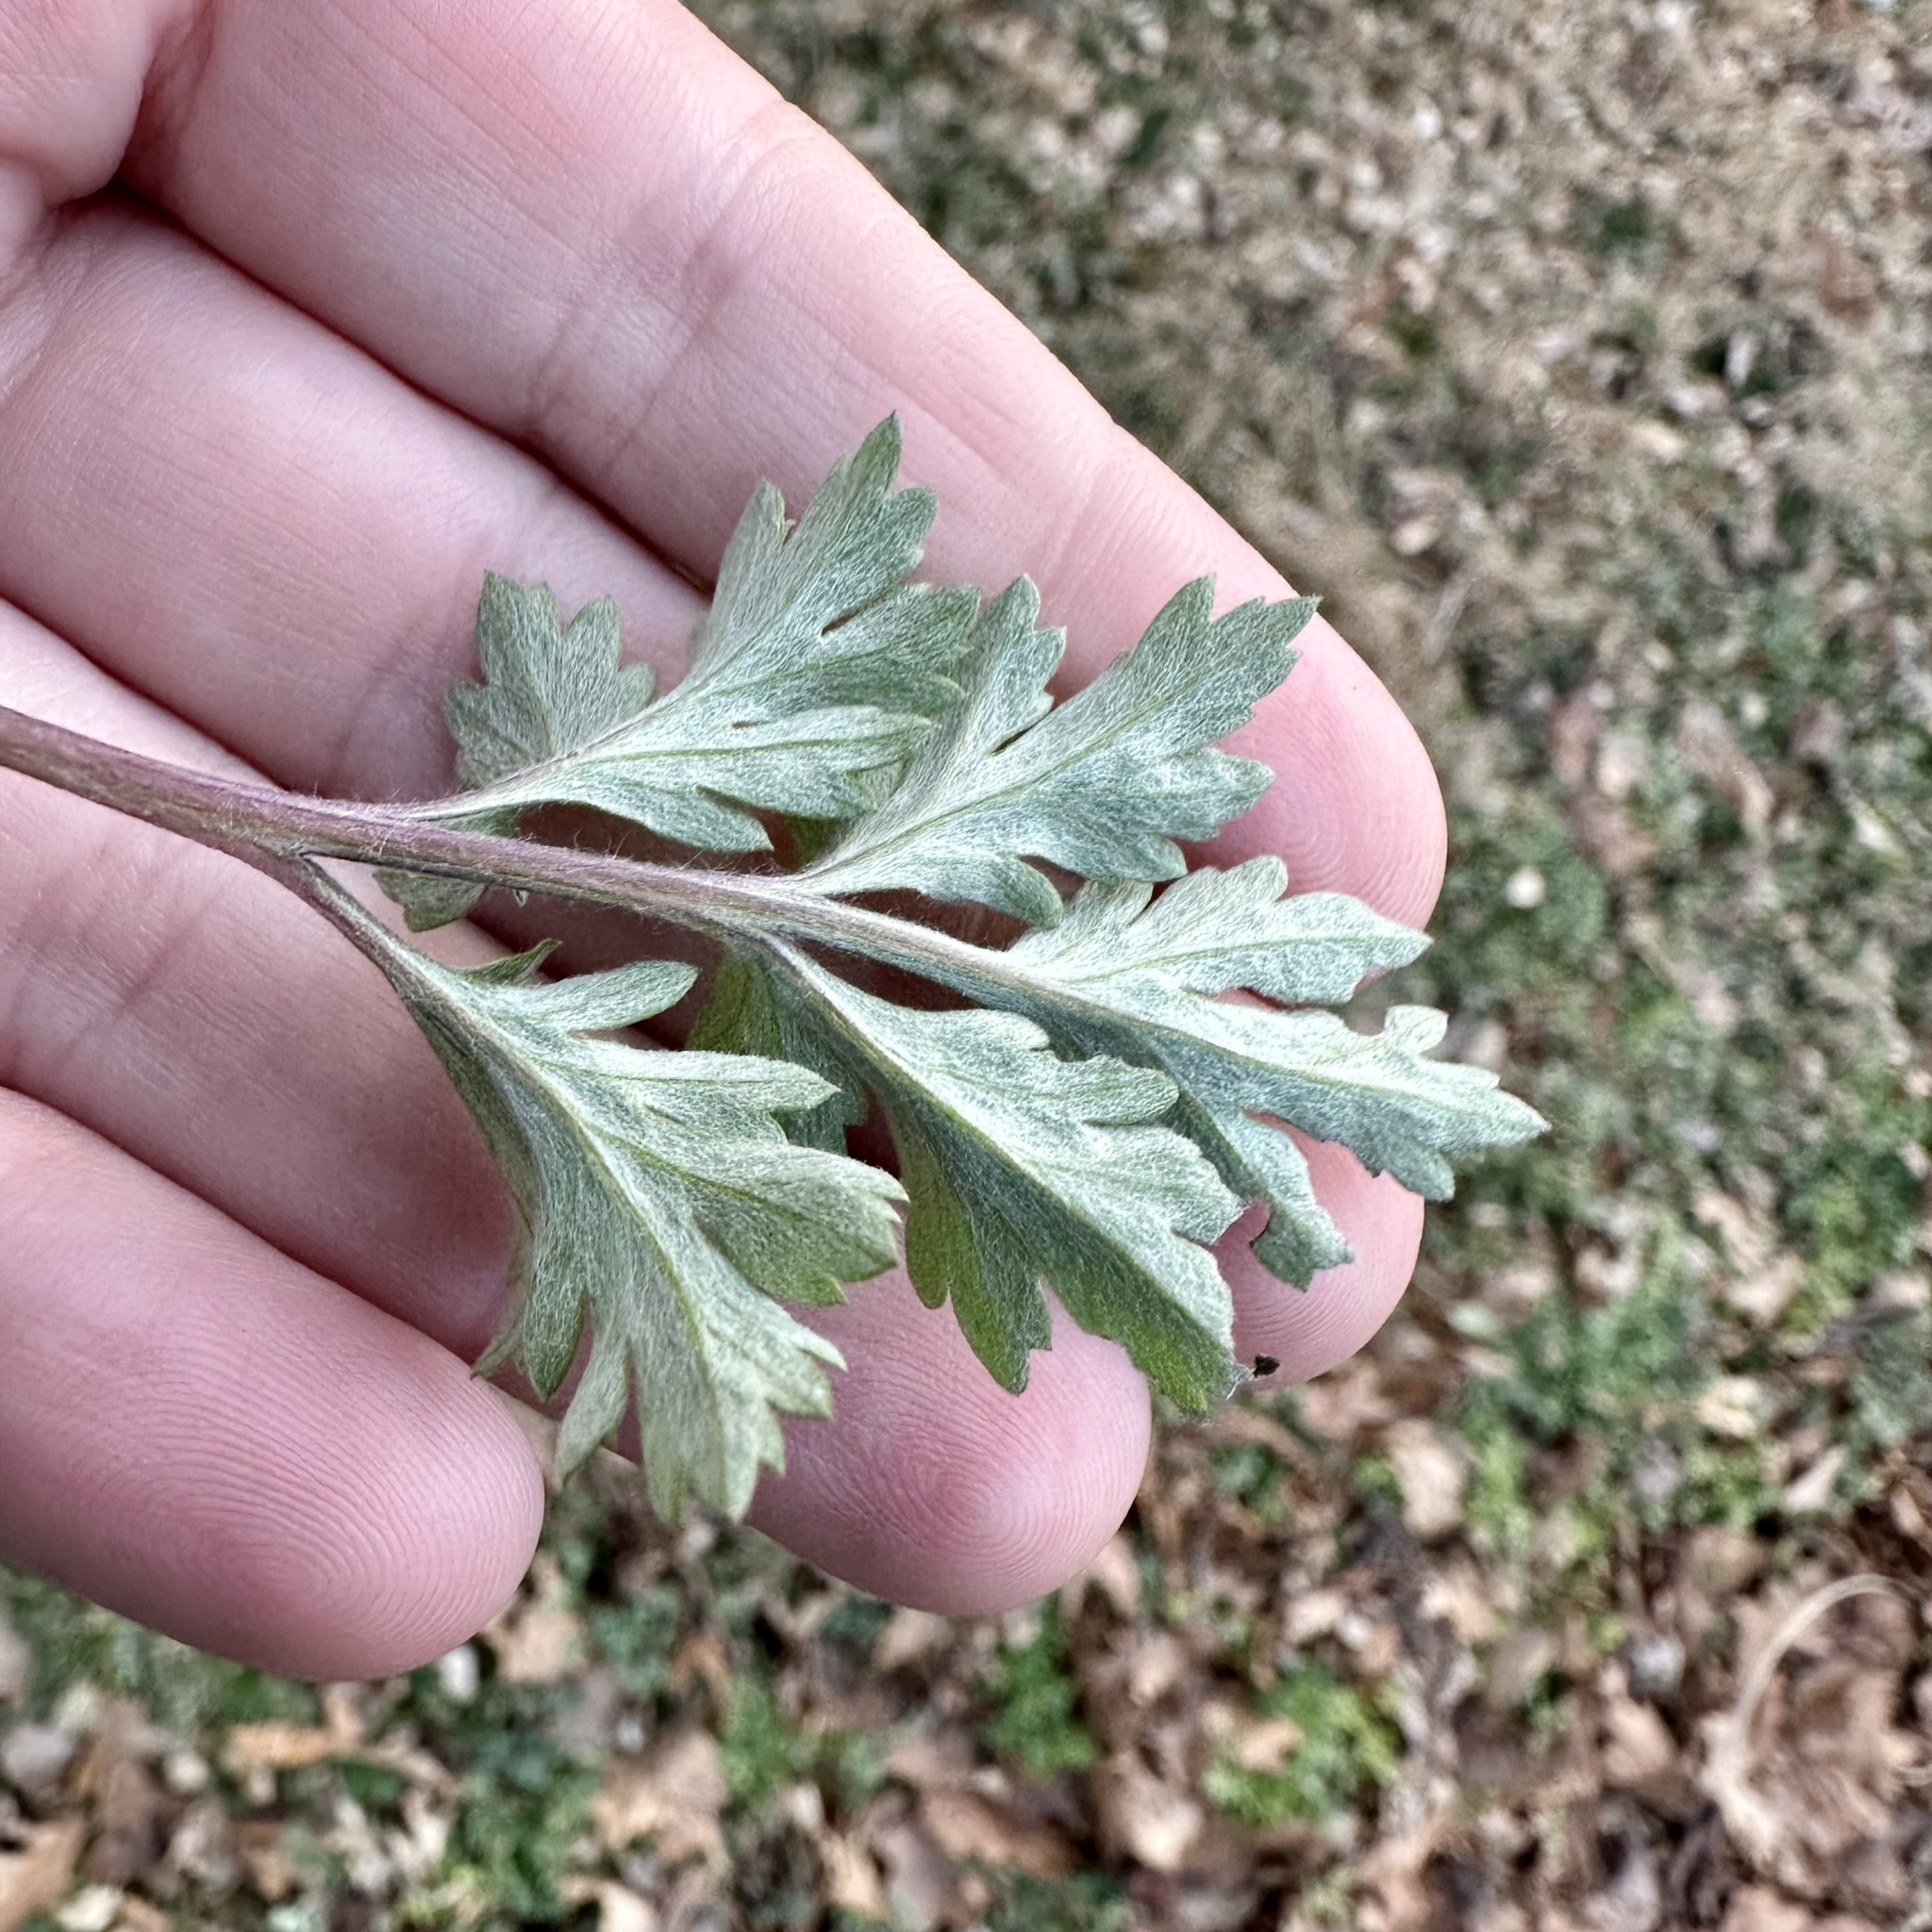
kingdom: Plantae
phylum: Tracheophyta
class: Magnoliopsida
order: Asterales
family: Asteraceae
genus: Artemisia
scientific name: Artemisia vulgaris
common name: Mugwort
